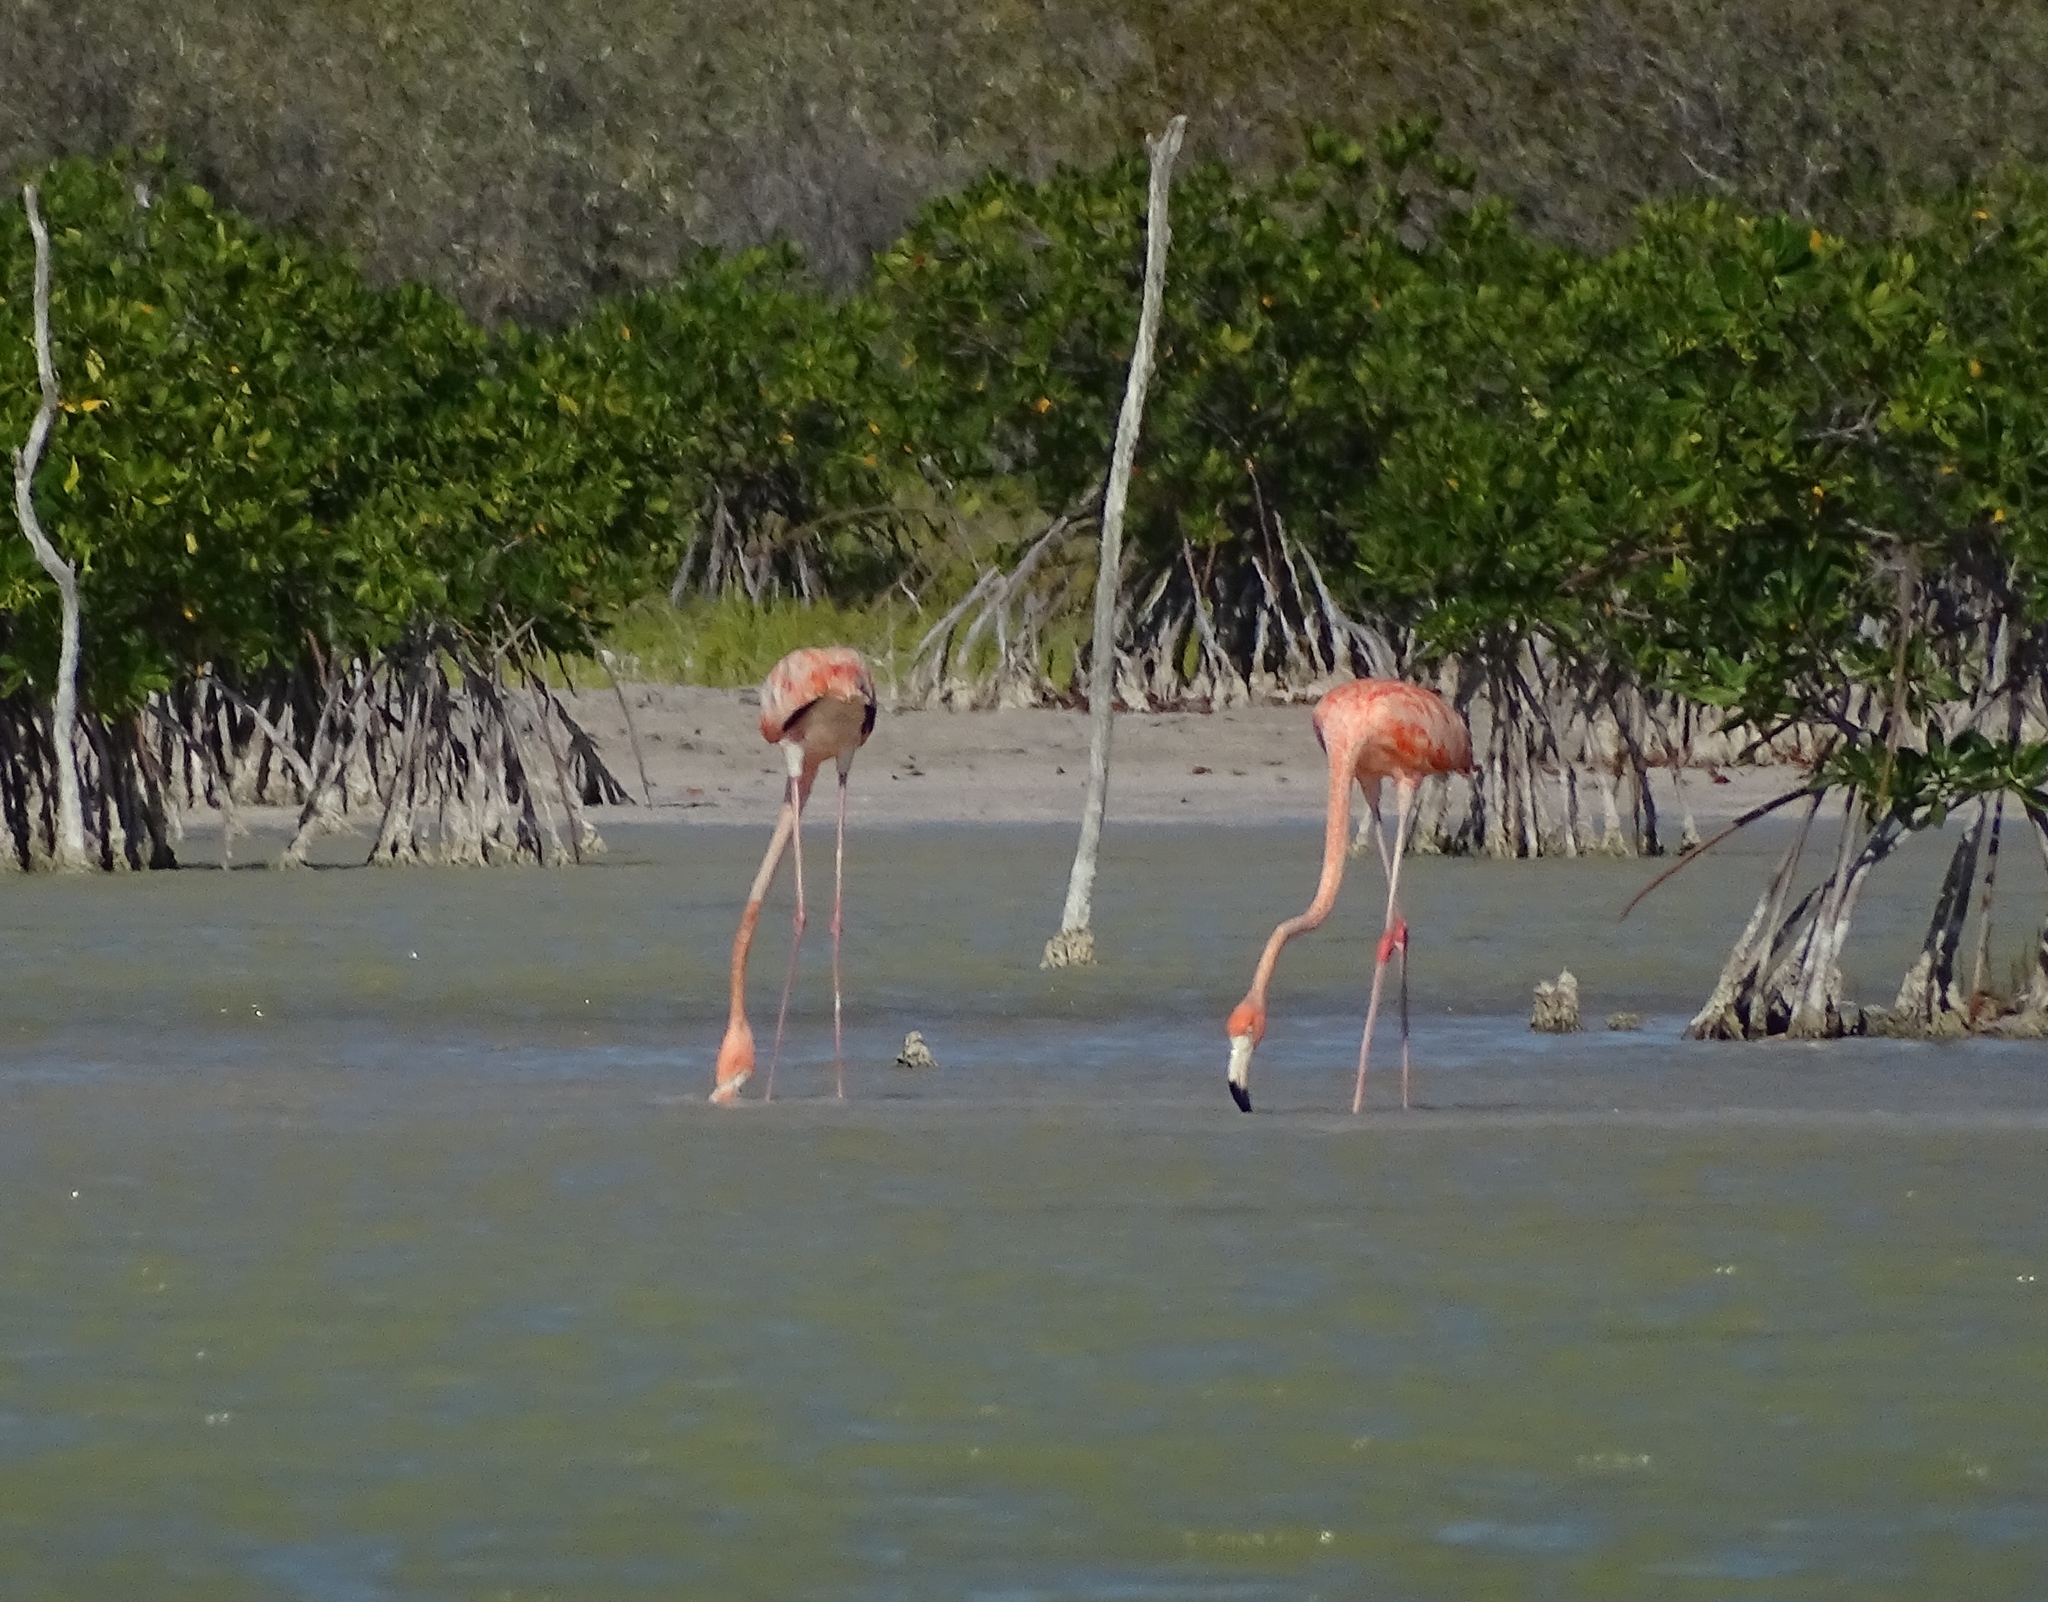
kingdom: Animalia
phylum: Chordata
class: Aves
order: Phoenicopteriformes
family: Phoenicopteridae
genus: Phoenicopterus
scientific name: Phoenicopterus ruber
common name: American flamingo
